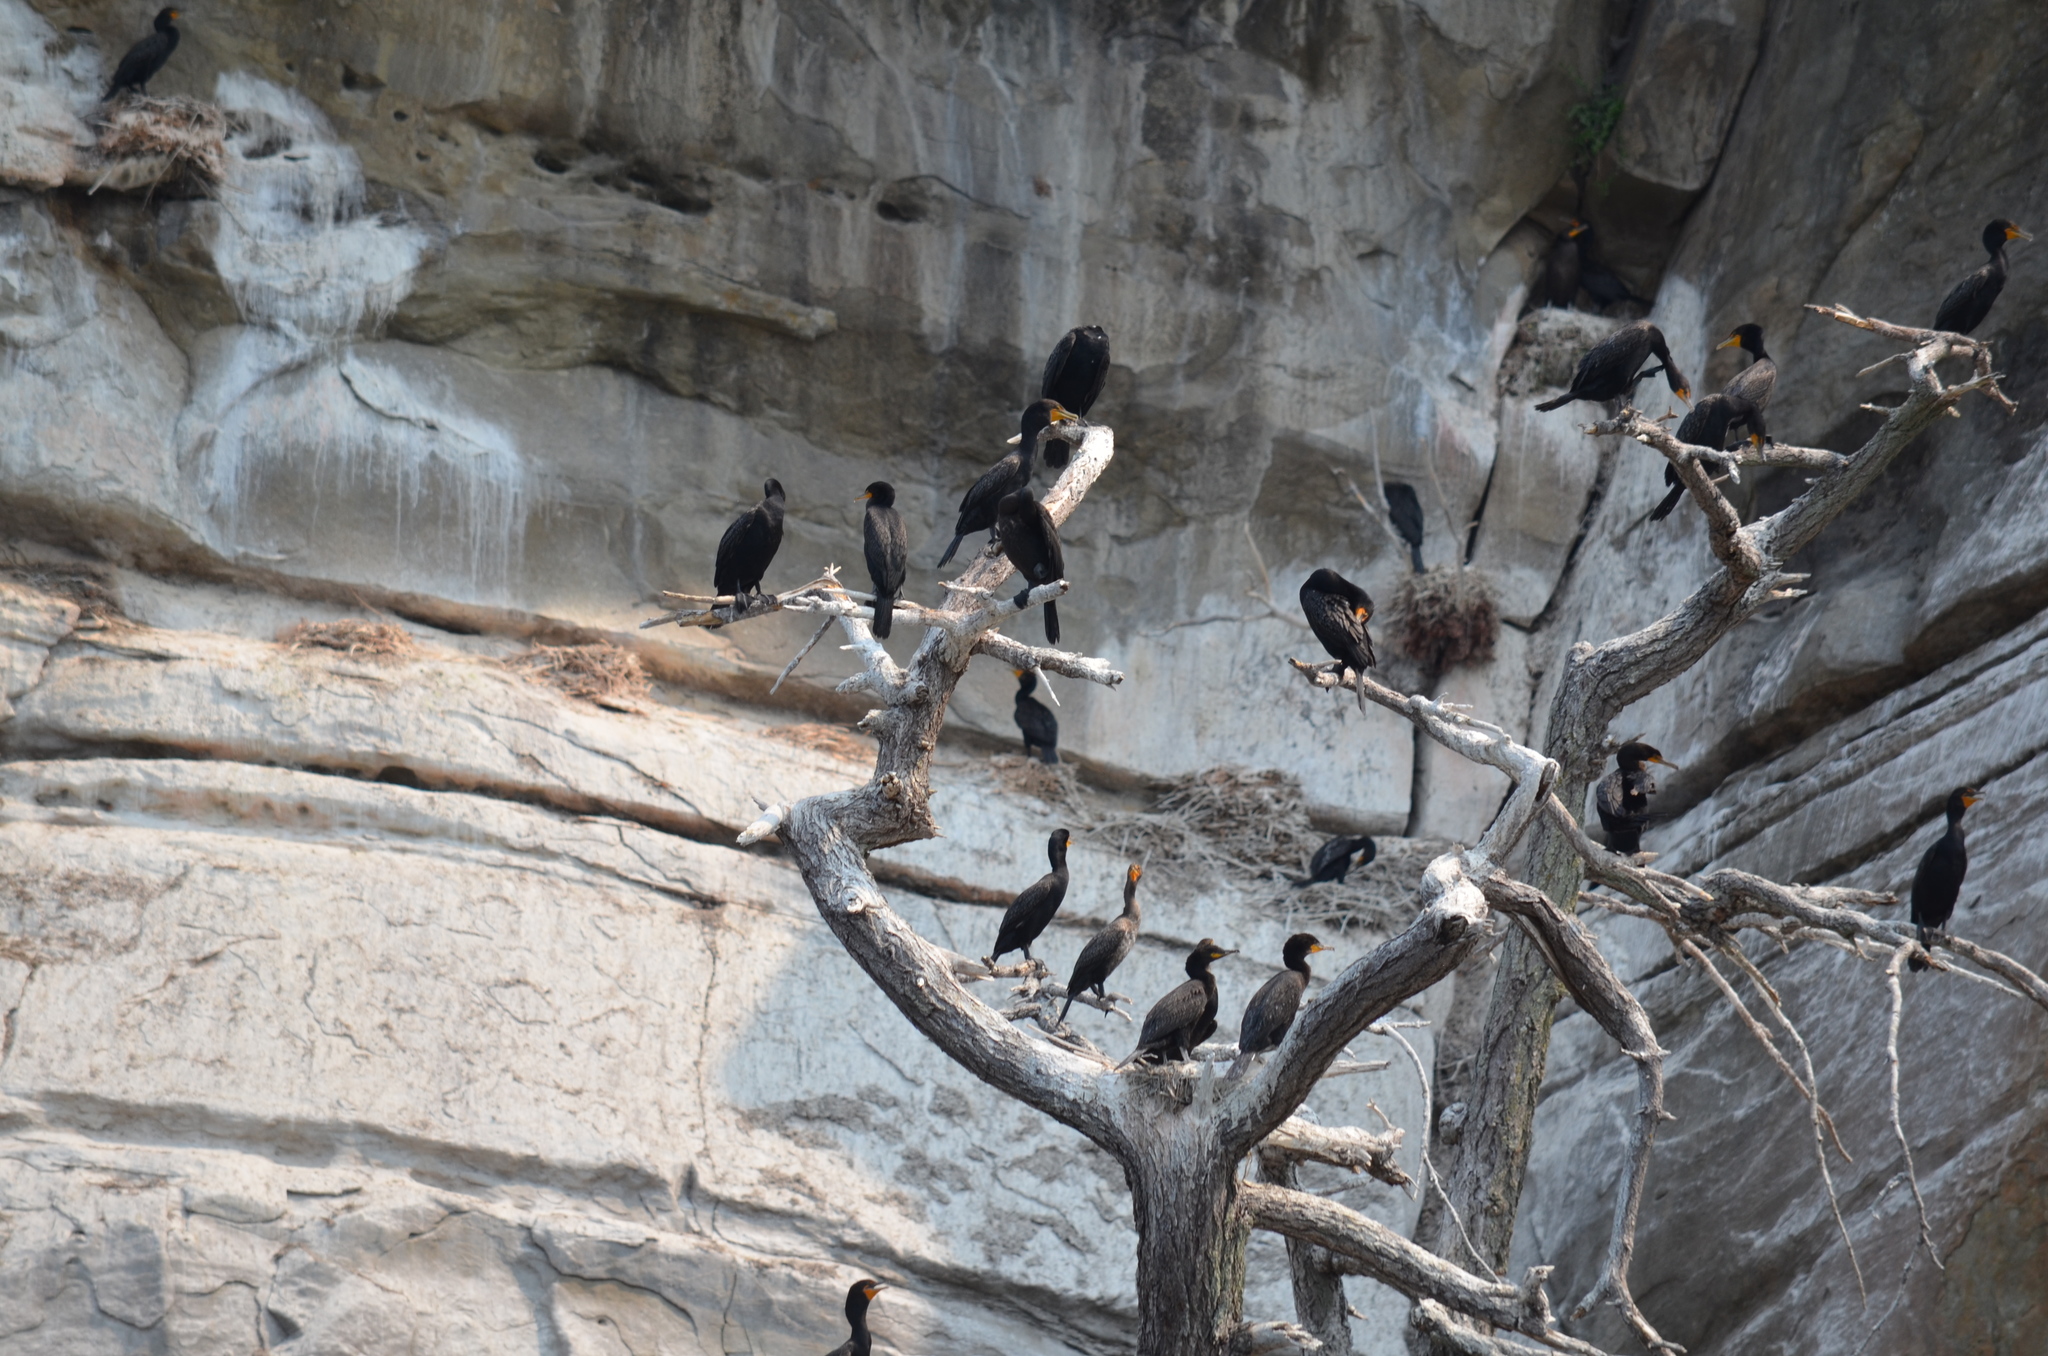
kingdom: Animalia
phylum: Chordata
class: Aves
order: Suliformes
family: Phalacrocoracidae
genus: Phalacrocorax
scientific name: Phalacrocorax auritus
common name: Double-crested cormorant
